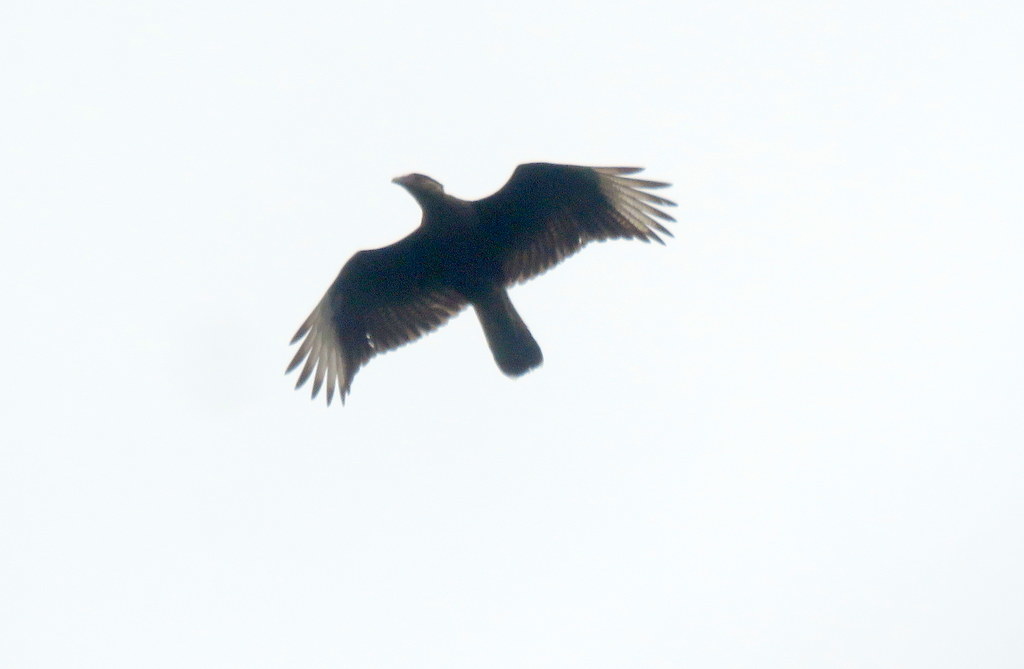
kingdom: Animalia
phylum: Chordata
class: Aves
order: Falconiformes
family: Falconidae
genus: Caracara
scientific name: Caracara plancus
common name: Southern caracara
